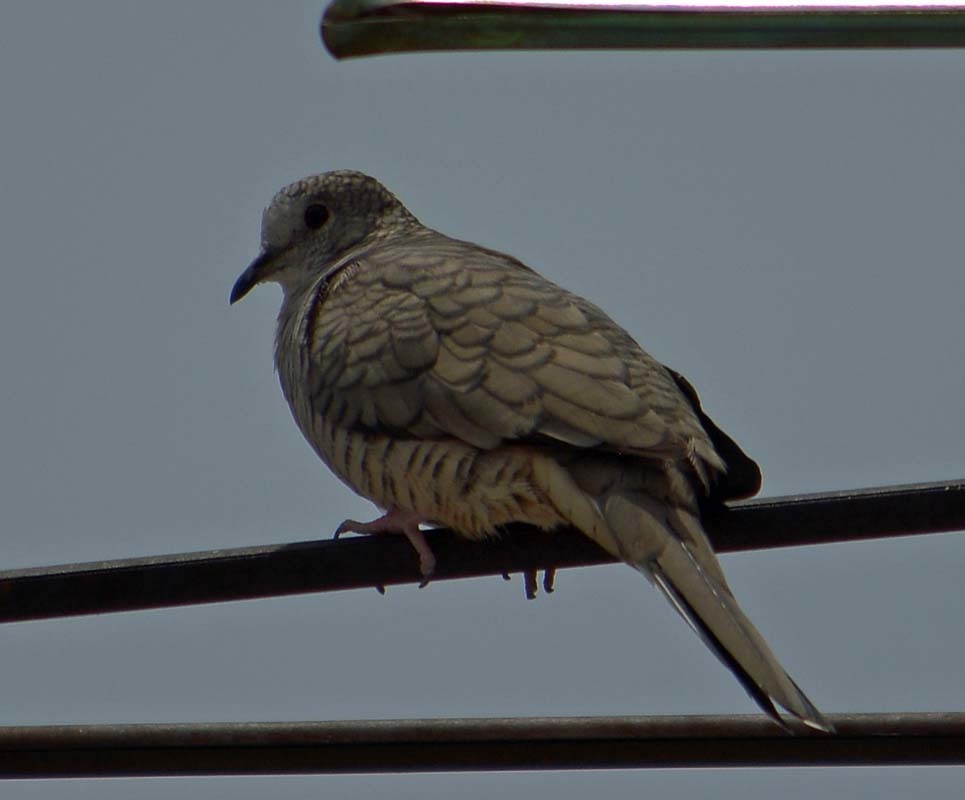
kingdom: Animalia
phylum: Chordata
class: Aves
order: Columbiformes
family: Columbidae
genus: Columbina
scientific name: Columbina inca
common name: Inca dove
